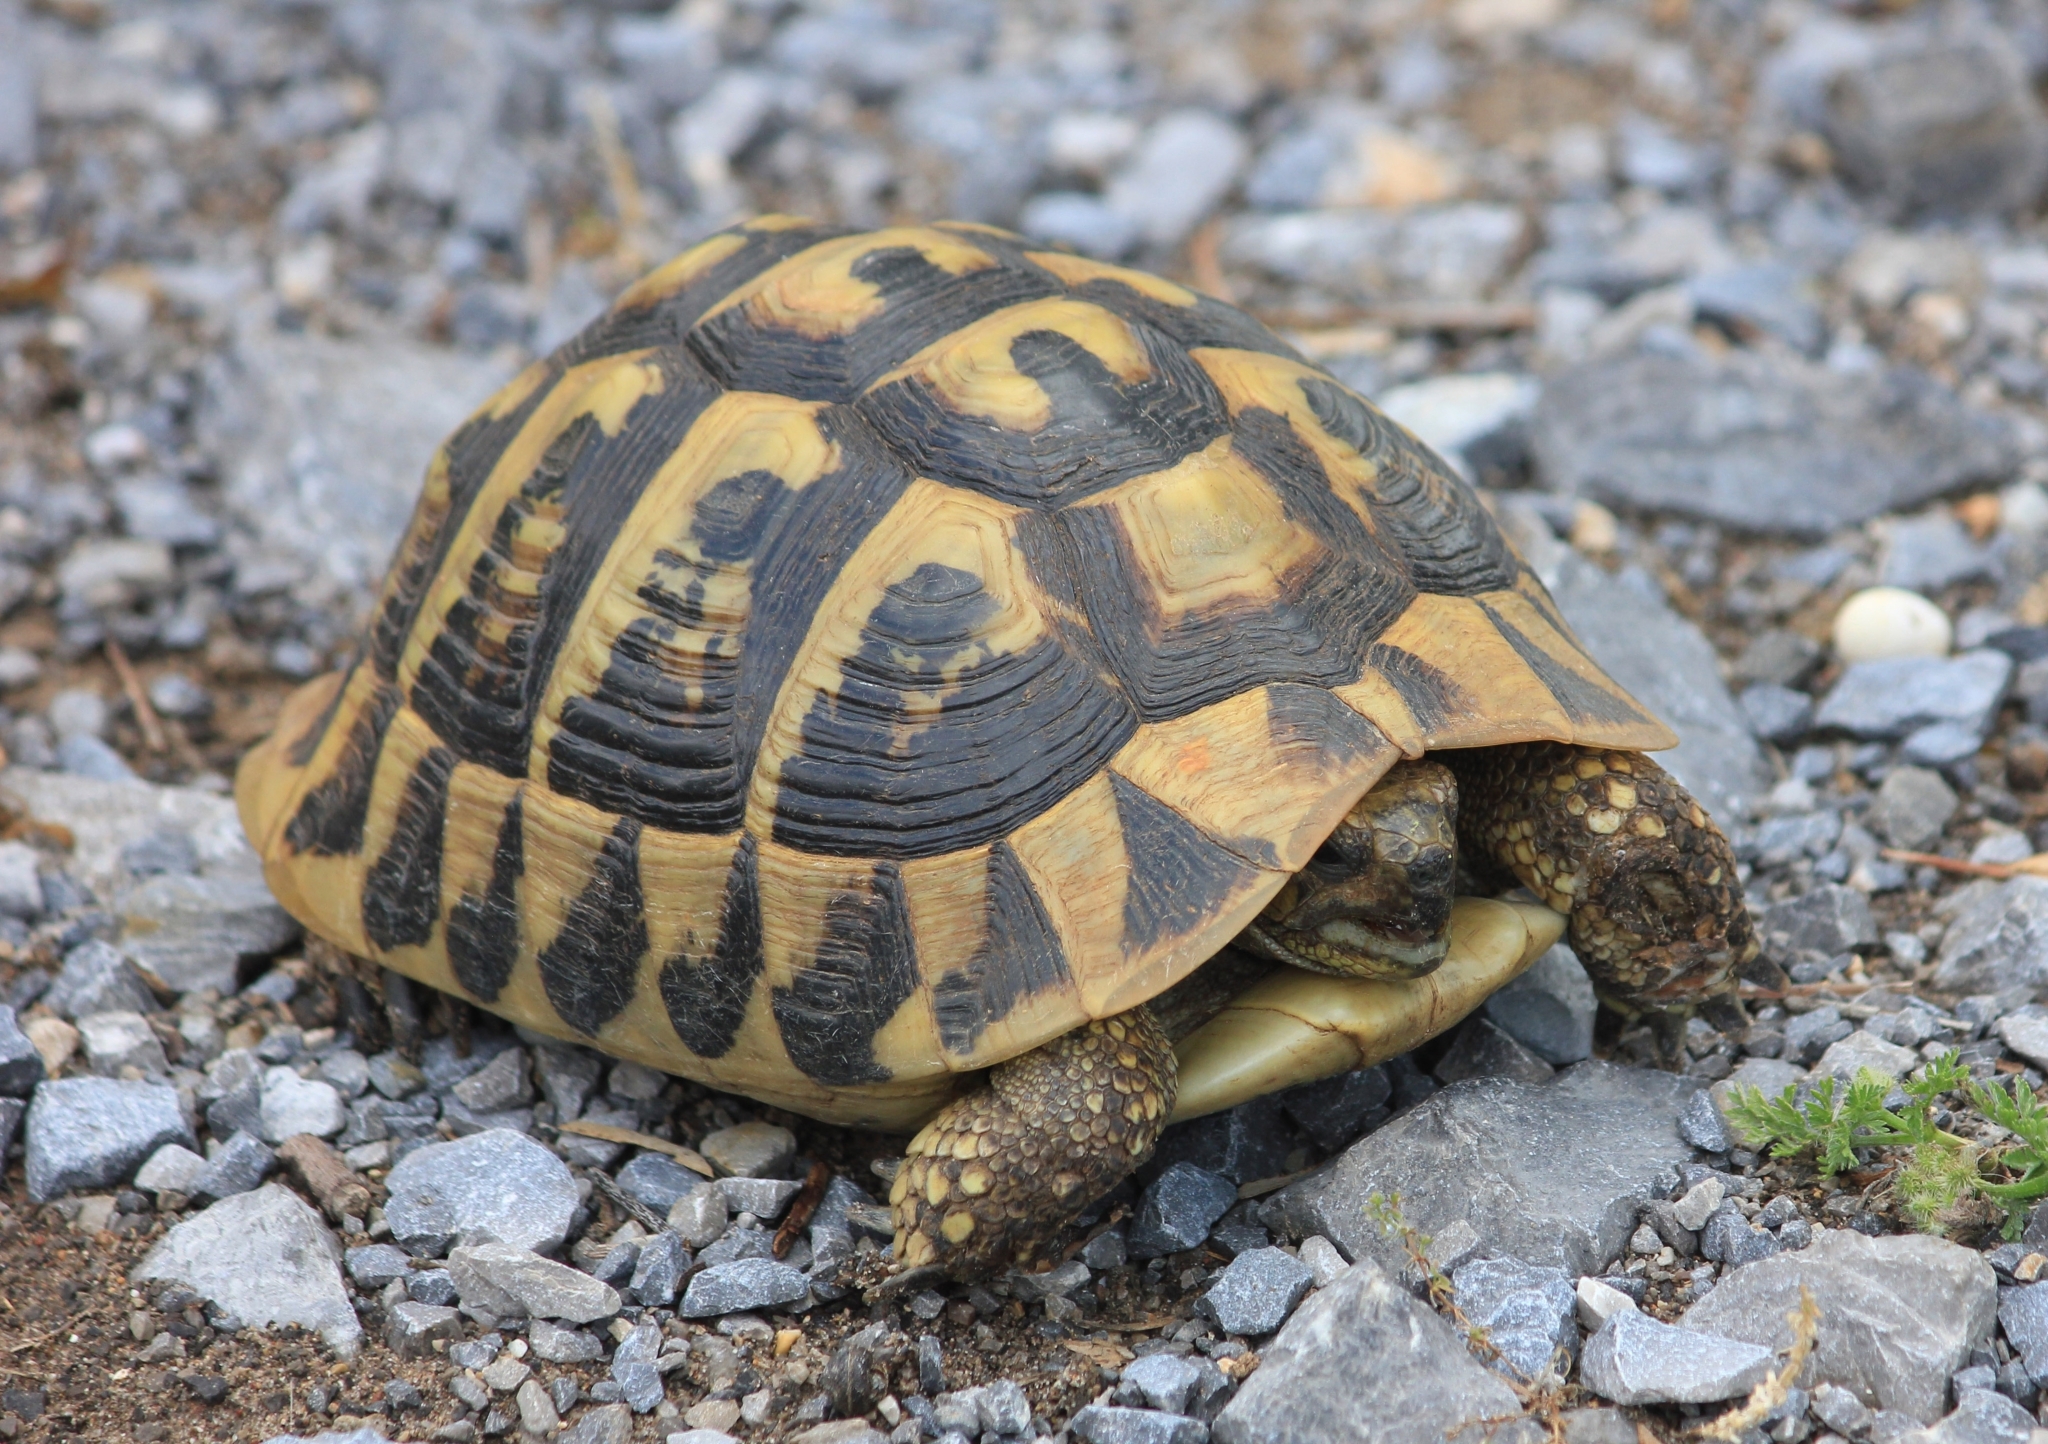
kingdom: Animalia
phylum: Chordata
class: Testudines
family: Testudinidae
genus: Testudo
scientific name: Testudo hermanni
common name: Hermann's tortoise
